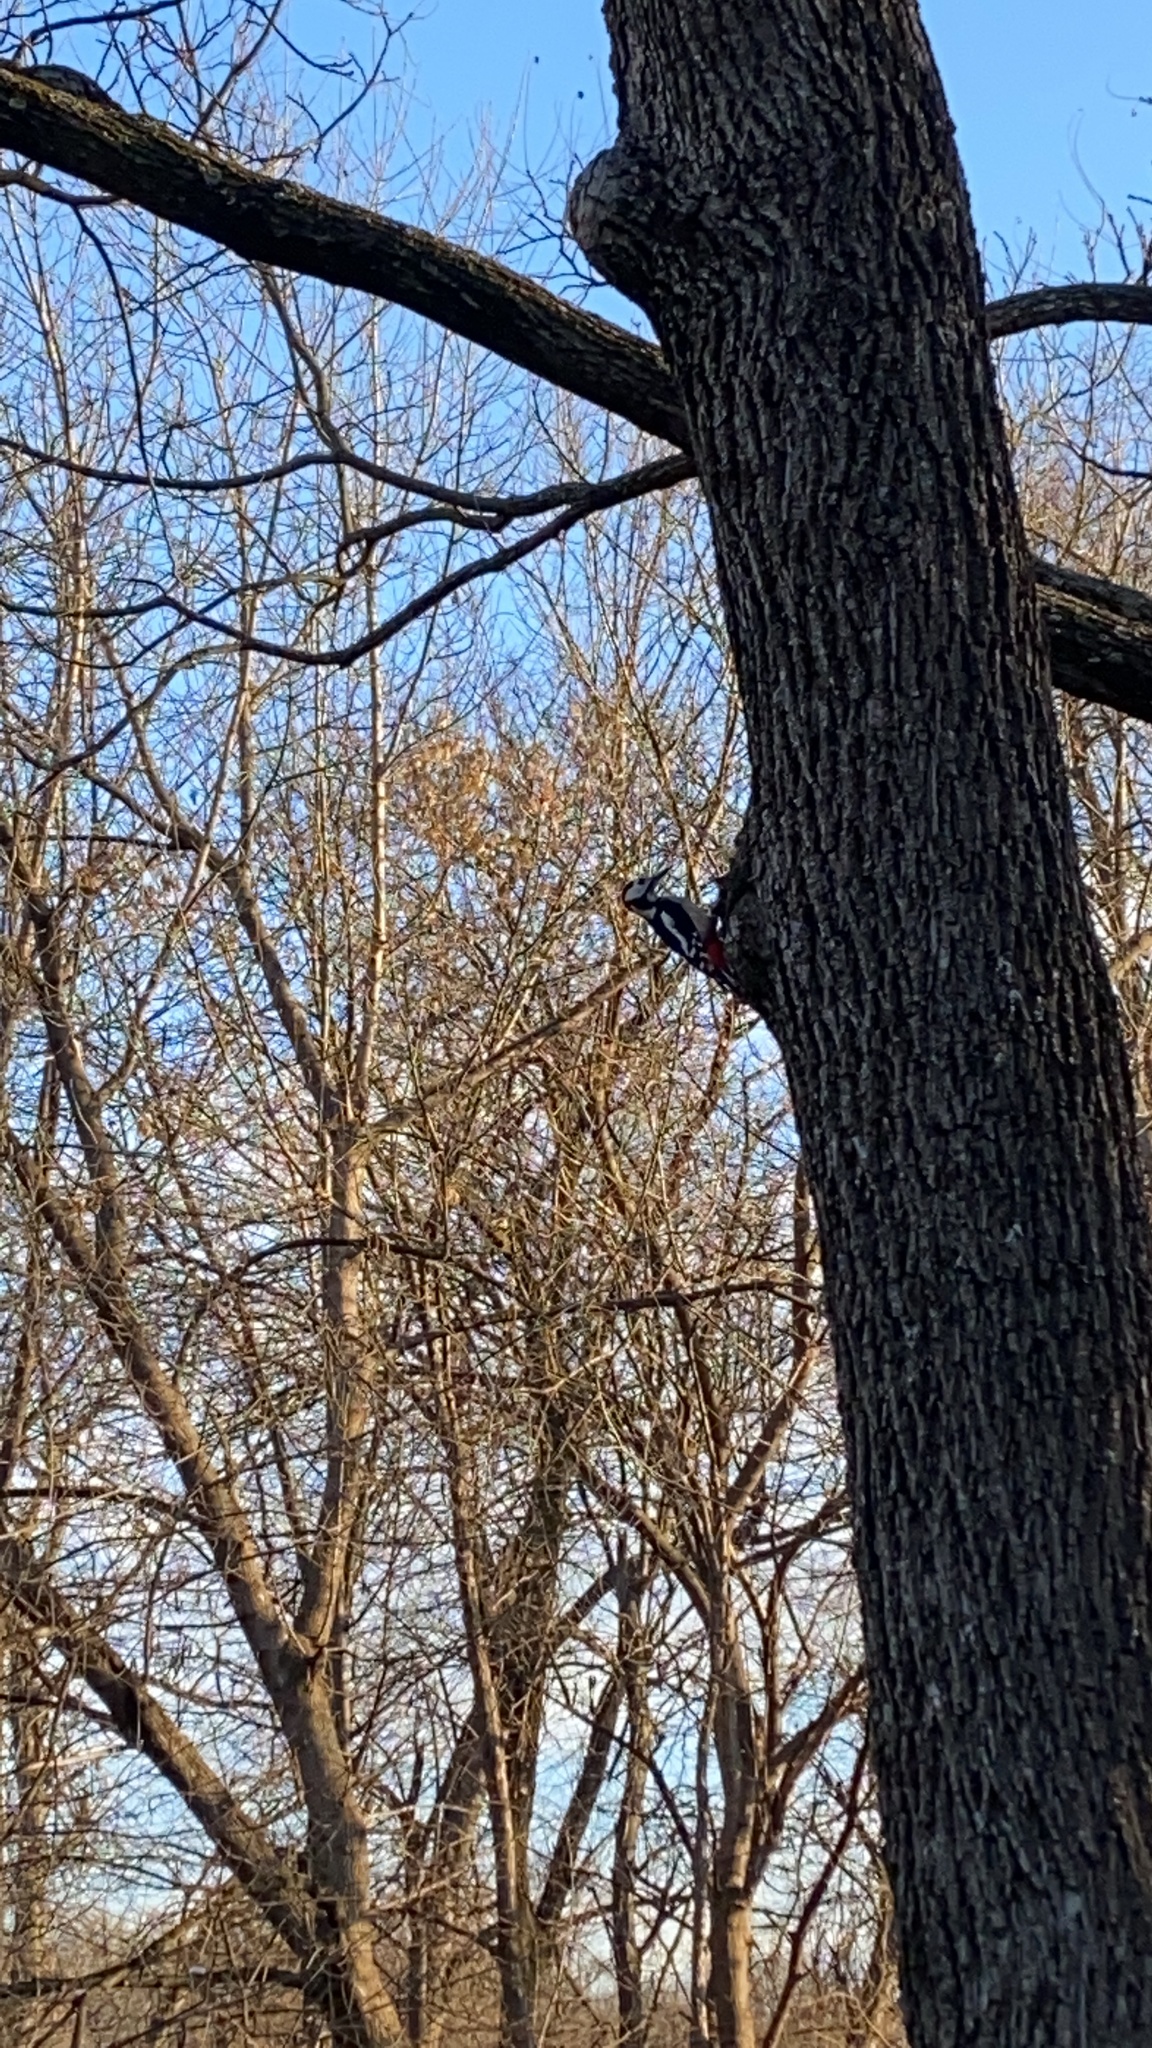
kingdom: Animalia
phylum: Chordata
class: Aves
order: Piciformes
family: Picidae
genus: Dendrocopos
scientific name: Dendrocopos major
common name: Great spotted woodpecker
